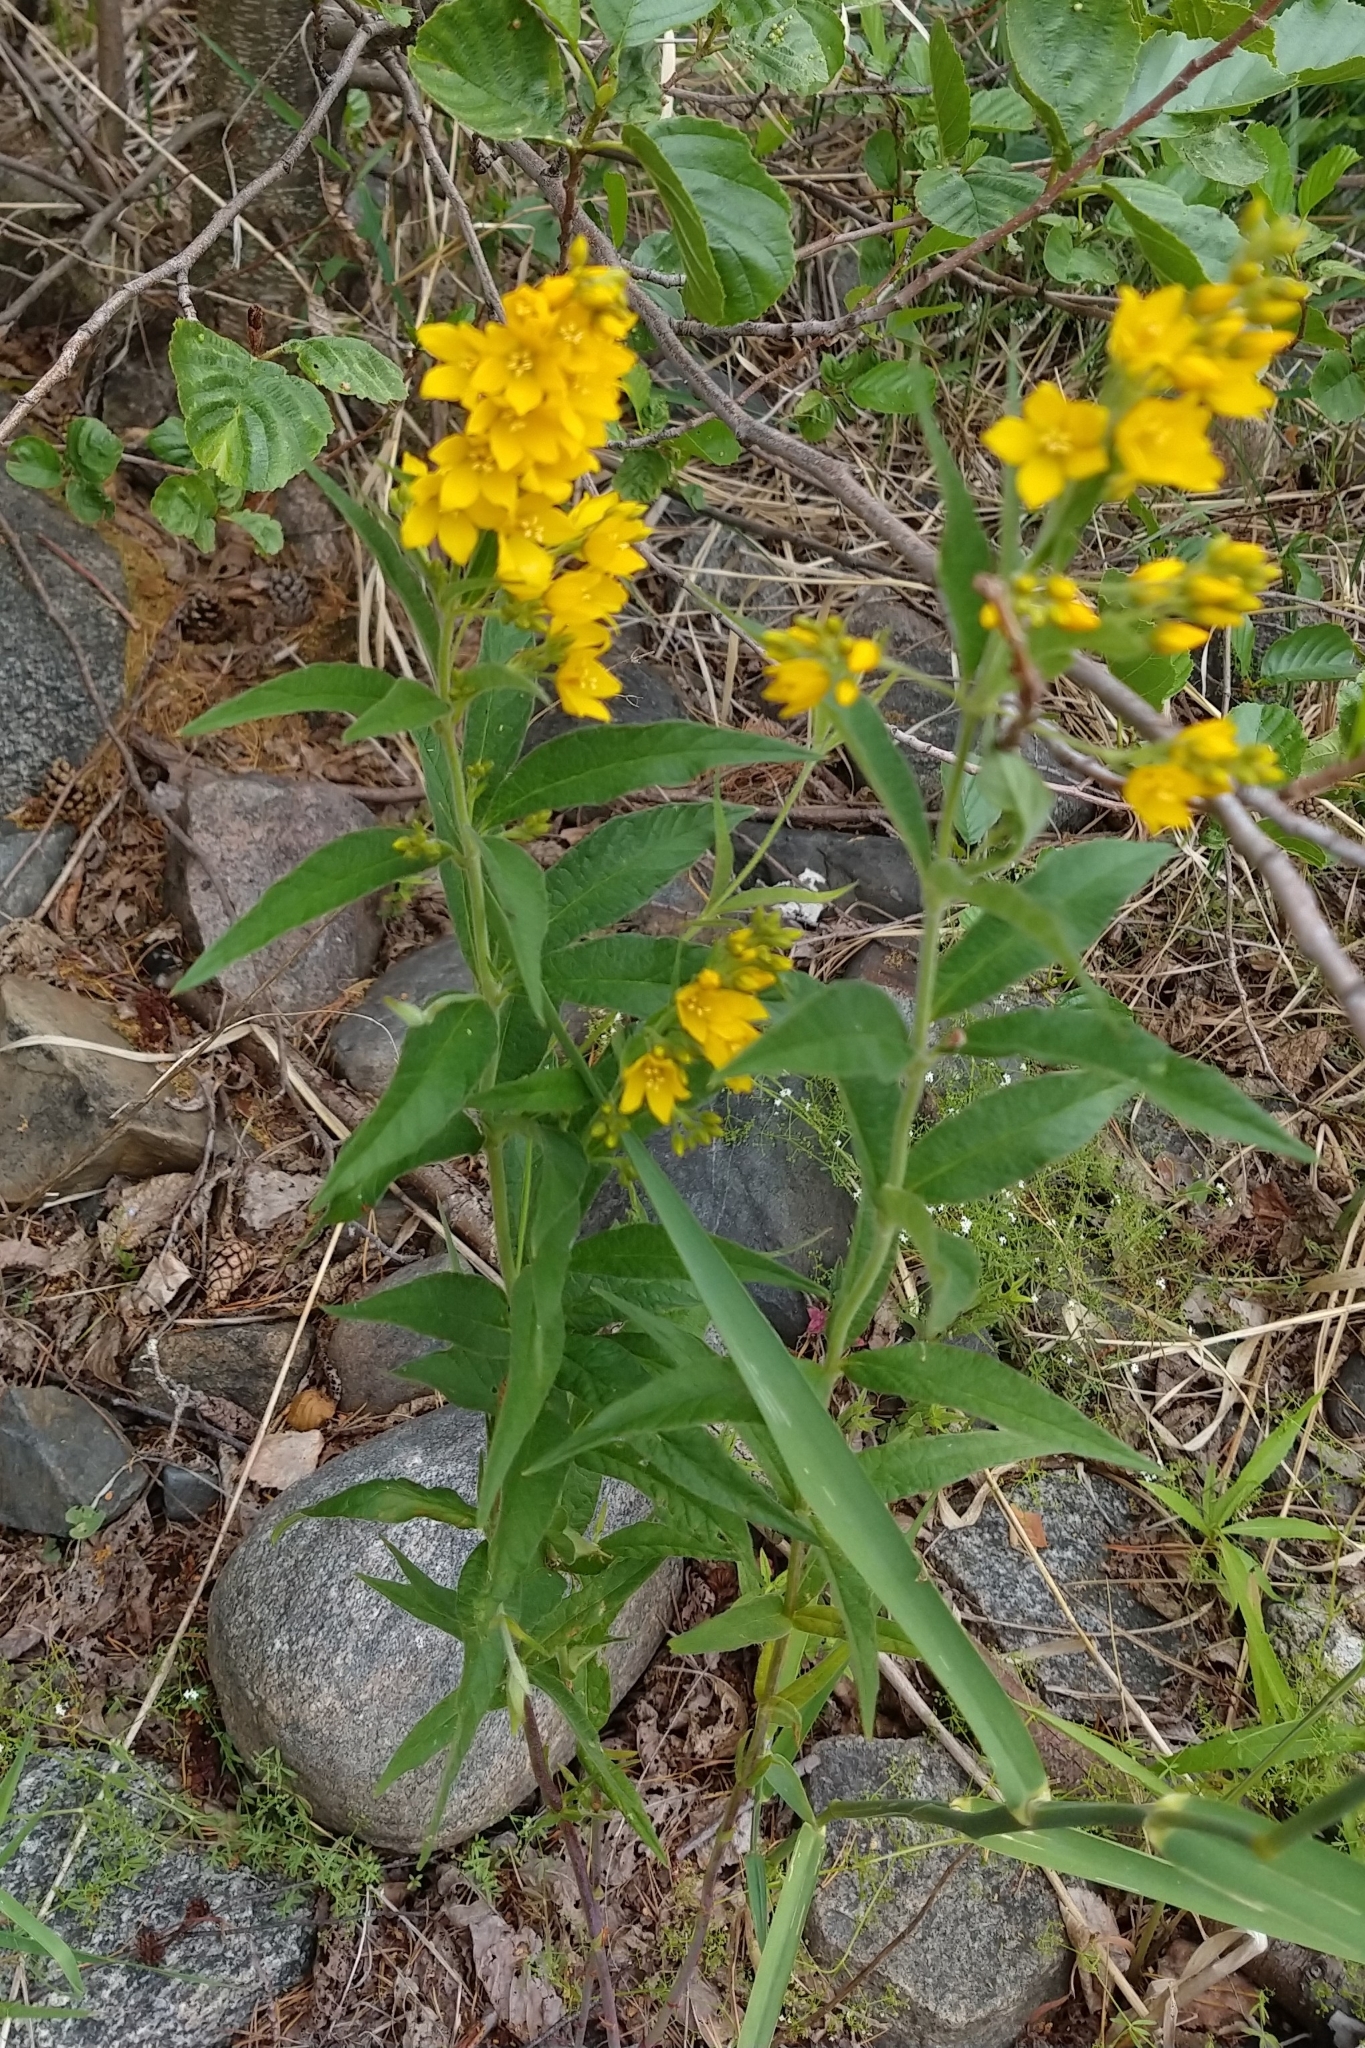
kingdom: Plantae
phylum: Tracheophyta
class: Magnoliopsida
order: Ericales
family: Primulaceae
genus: Lysimachia
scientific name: Lysimachia vulgaris
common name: Yellow loosestrife
